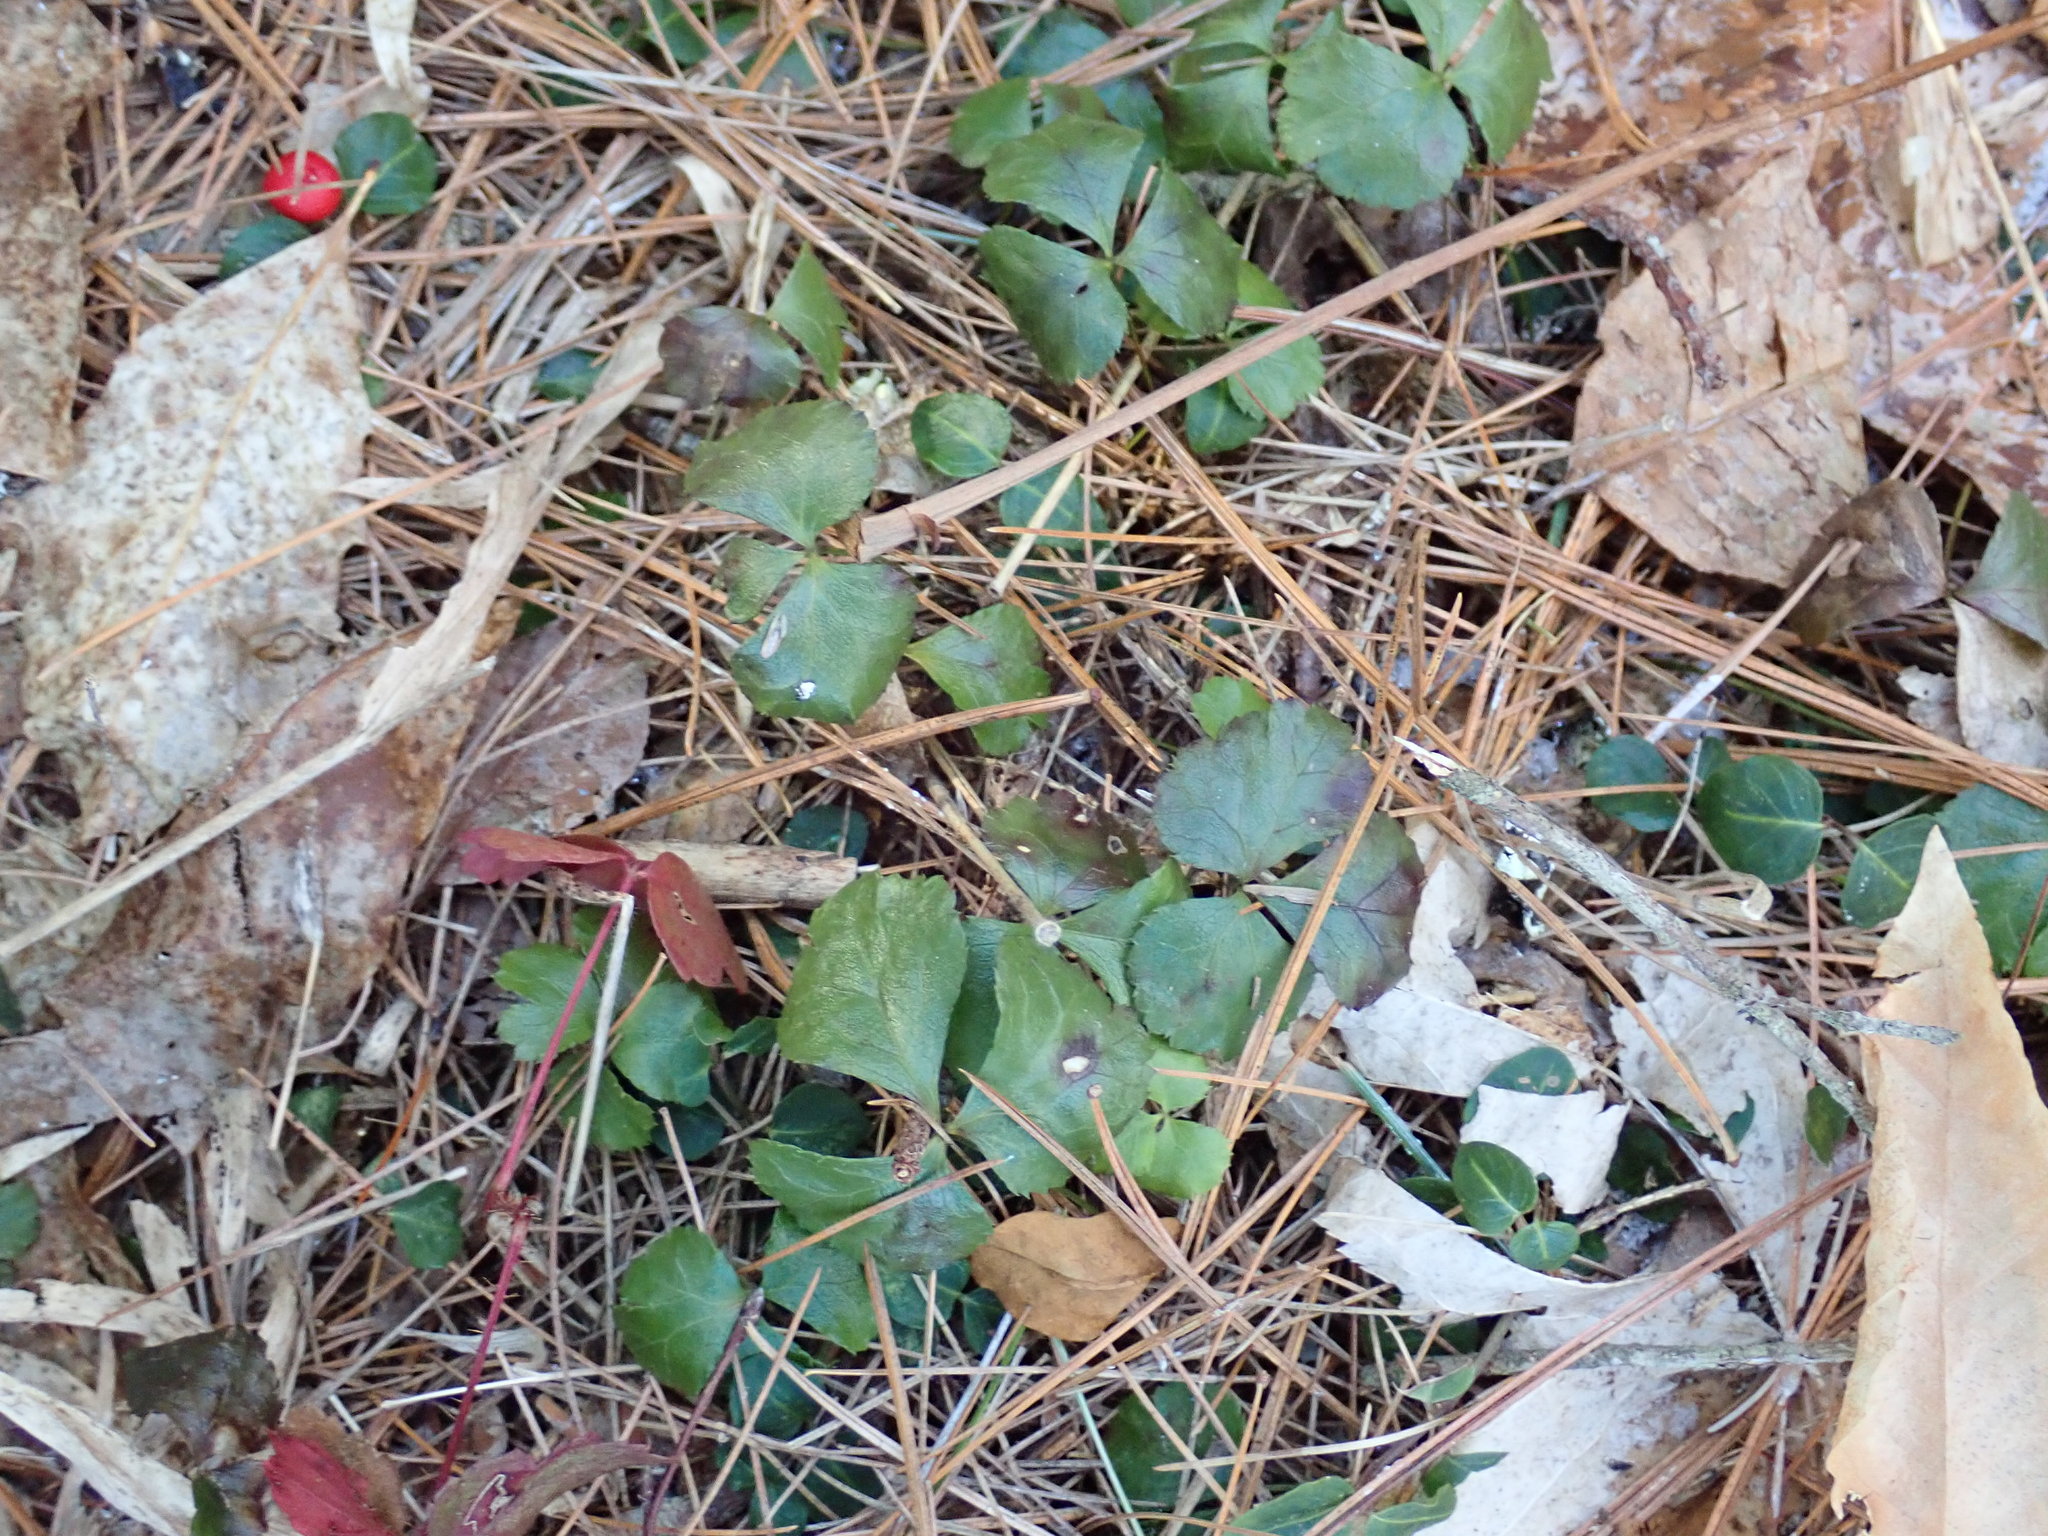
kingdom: Plantae
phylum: Tracheophyta
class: Magnoliopsida
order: Ranunculales
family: Ranunculaceae
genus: Coptis
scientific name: Coptis trifolia
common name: Canker-root
